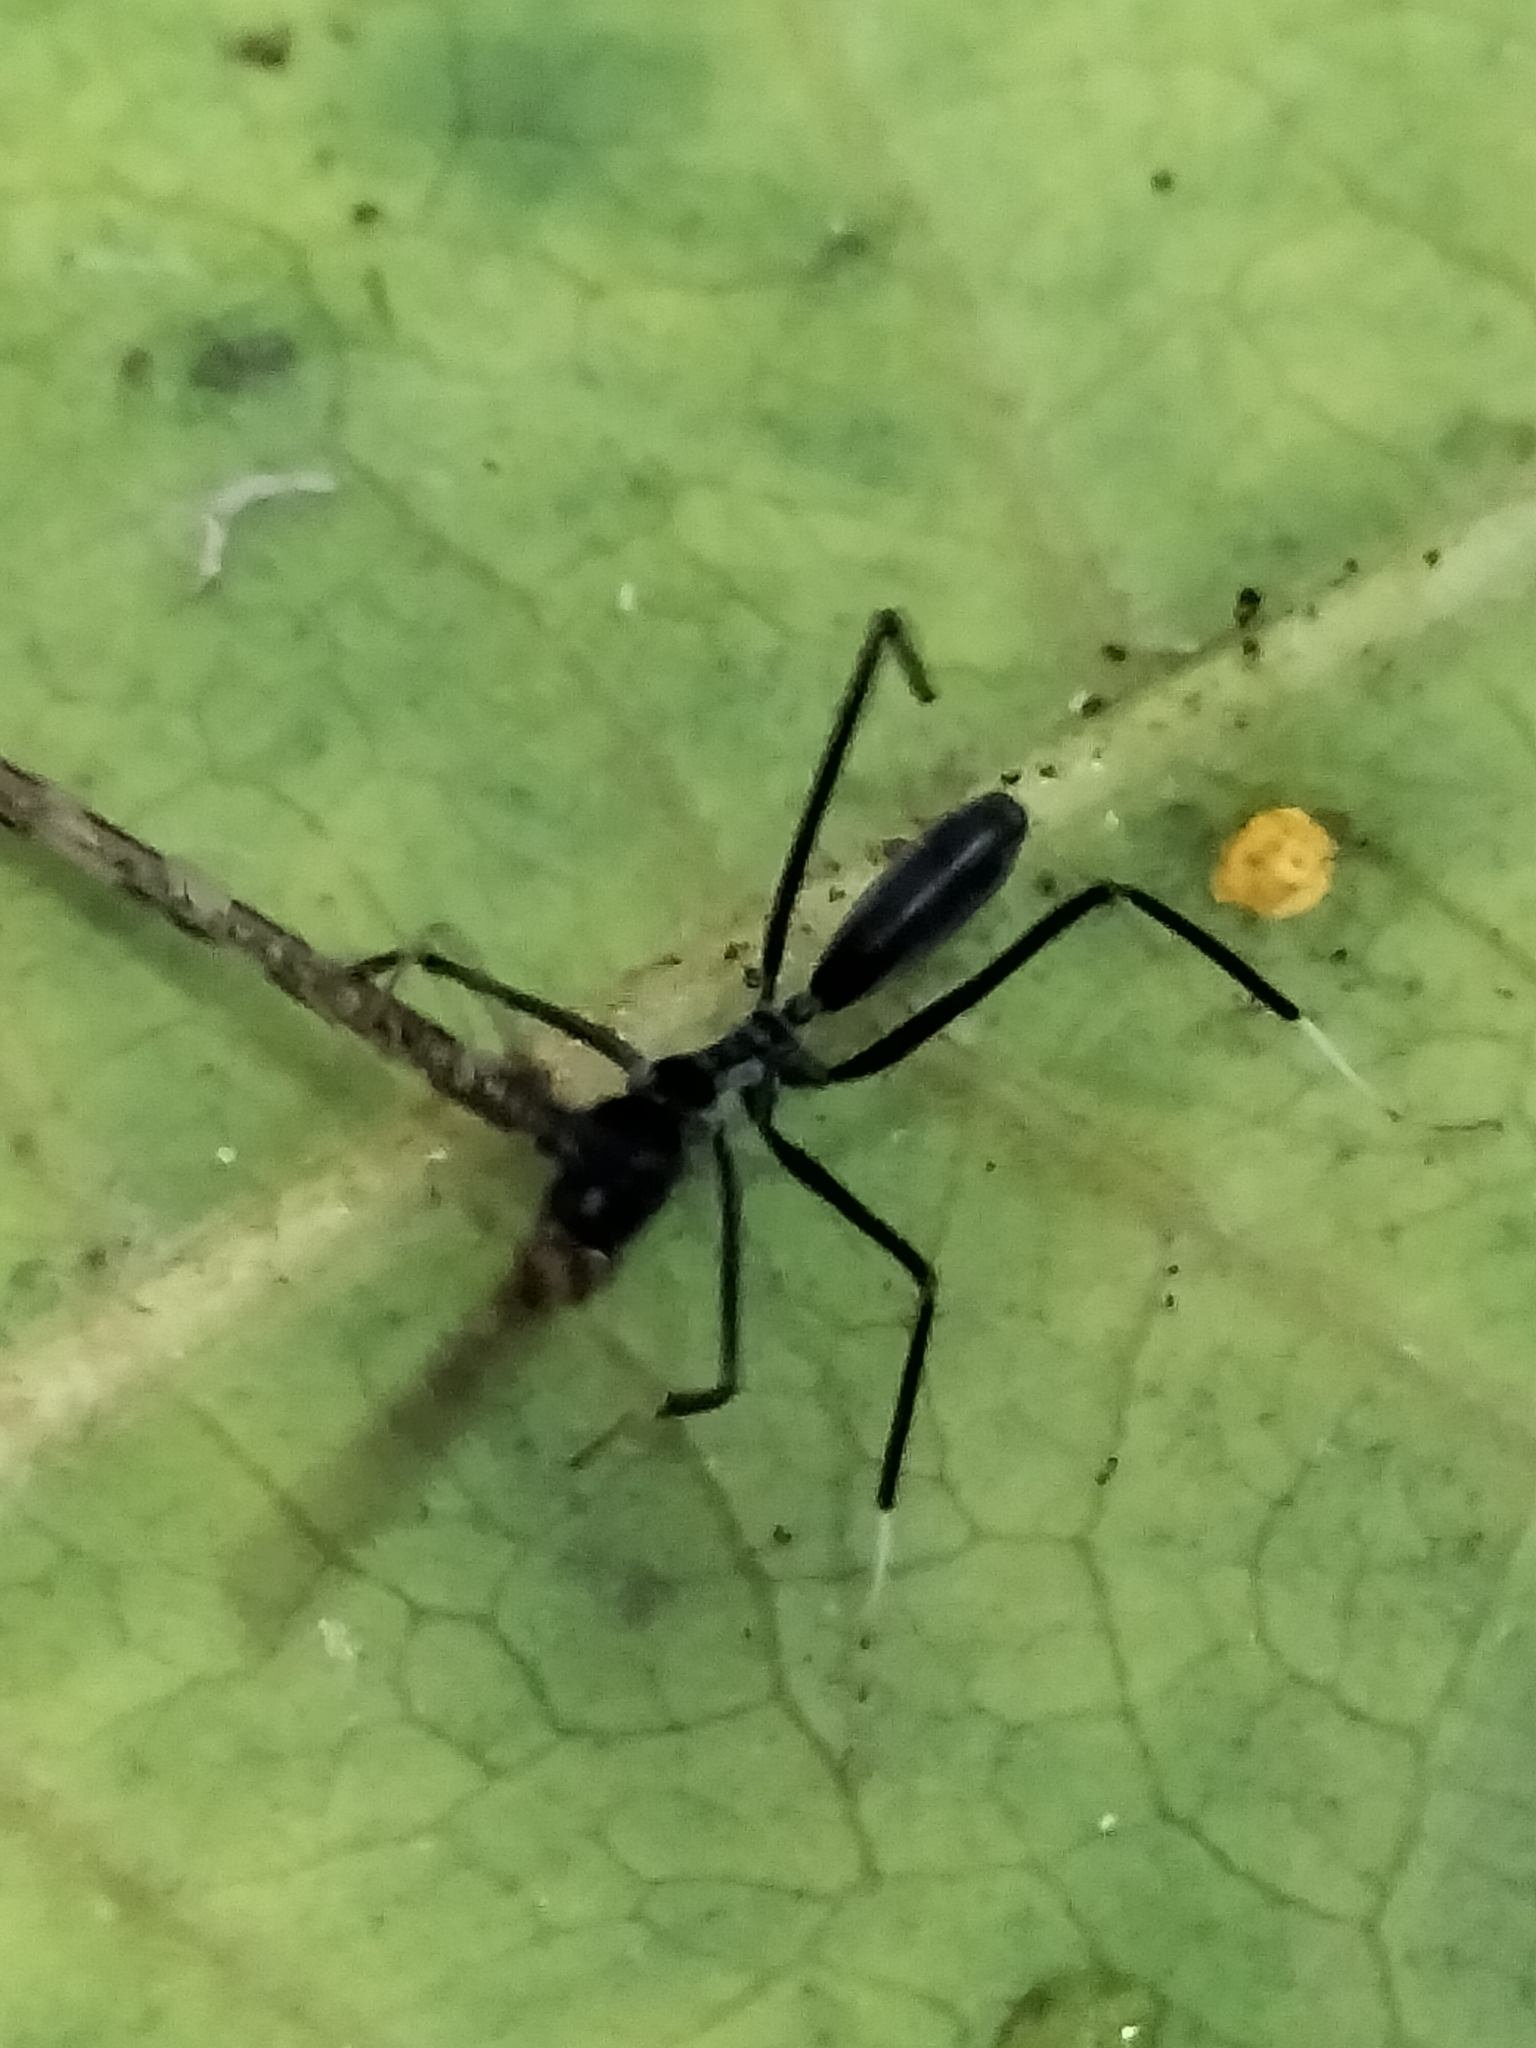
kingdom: Animalia
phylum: Arthropoda
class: Insecta
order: Hymenoptera
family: Formicidae
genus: Leptomyrmex
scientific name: Leptomyrmex unicolor
